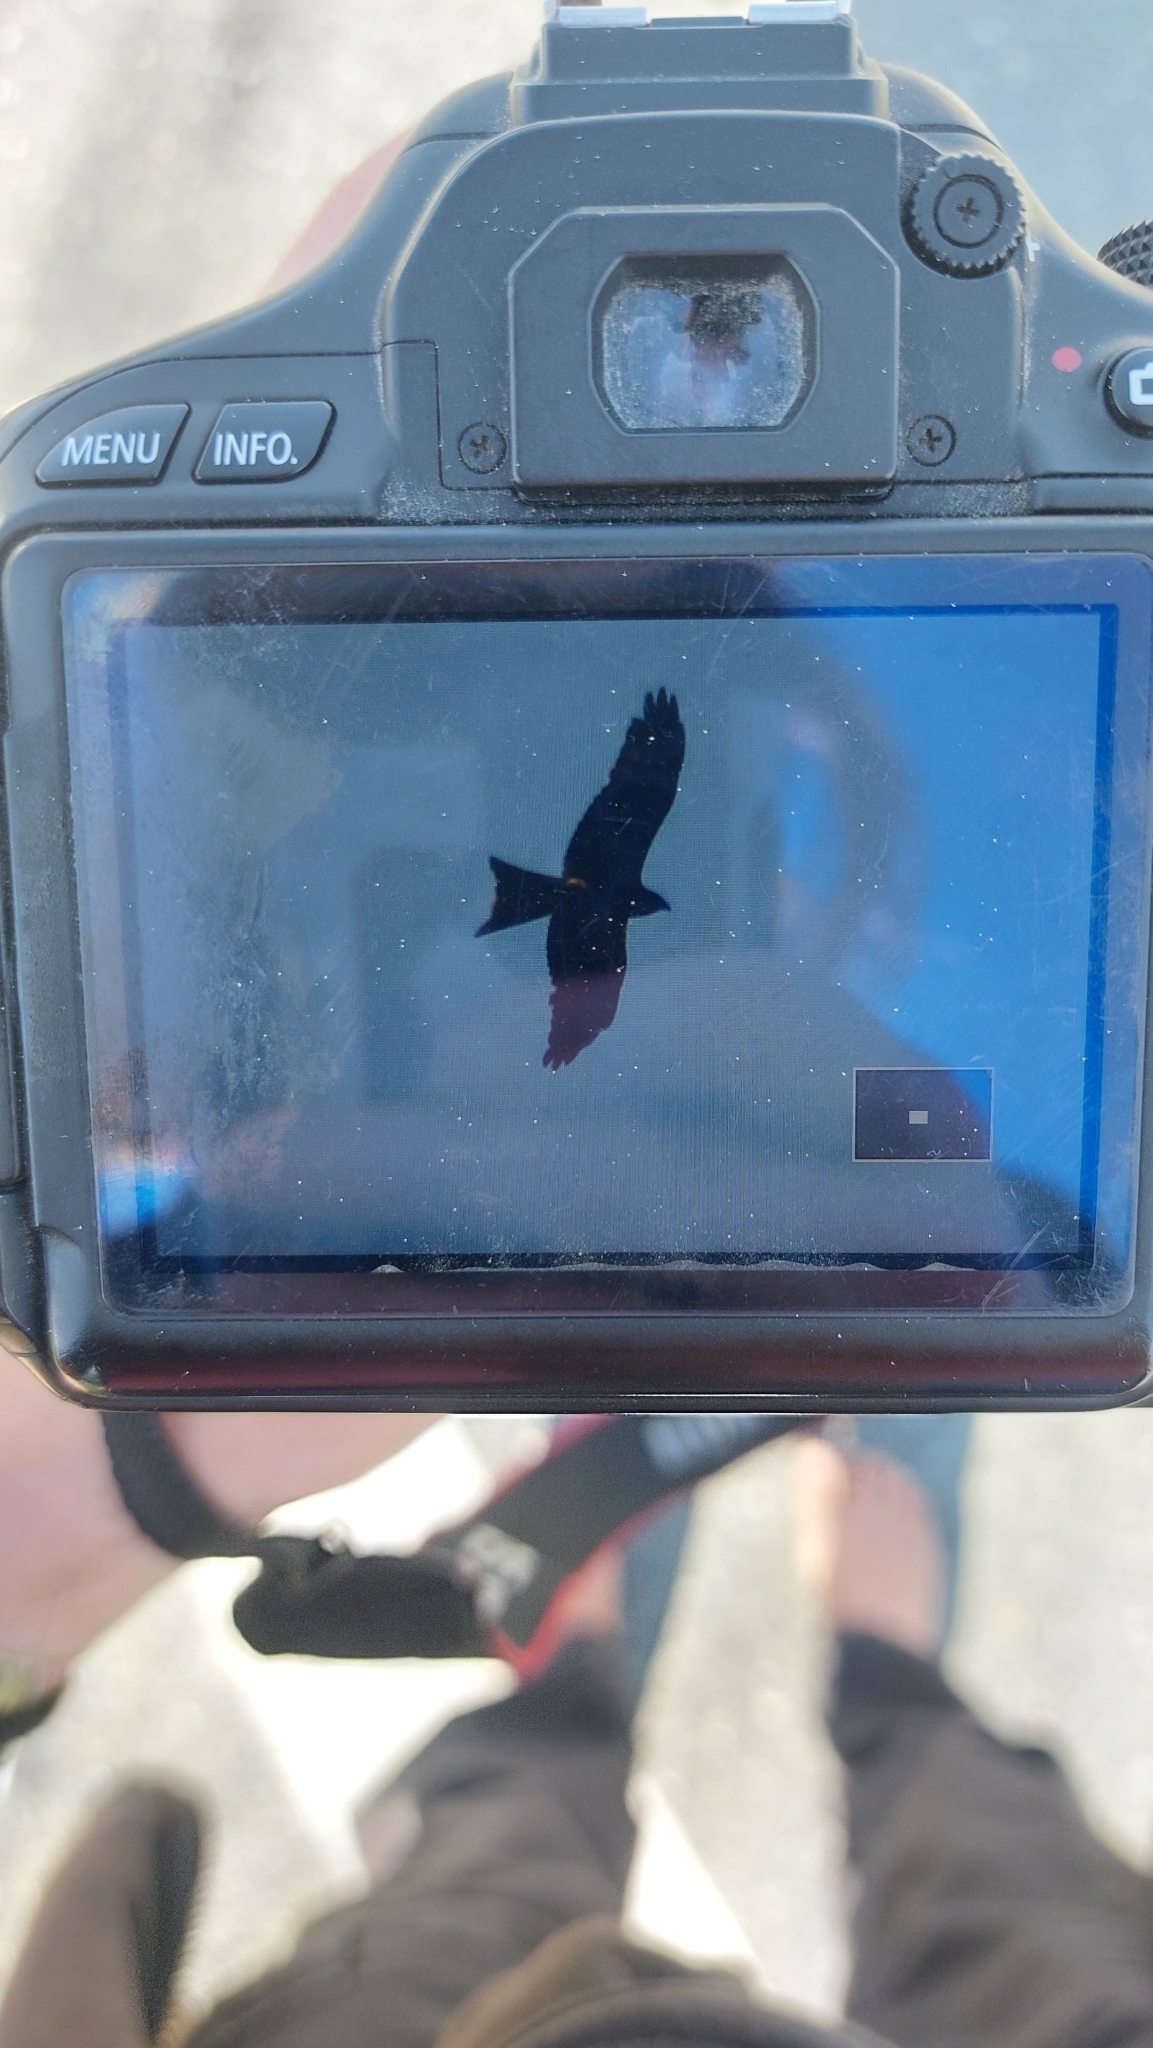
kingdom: Animalia
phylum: Chordata
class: Aves
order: Accipitriformes
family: Accipitridae
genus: Milvus
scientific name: Milvus migrans
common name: Black kite
